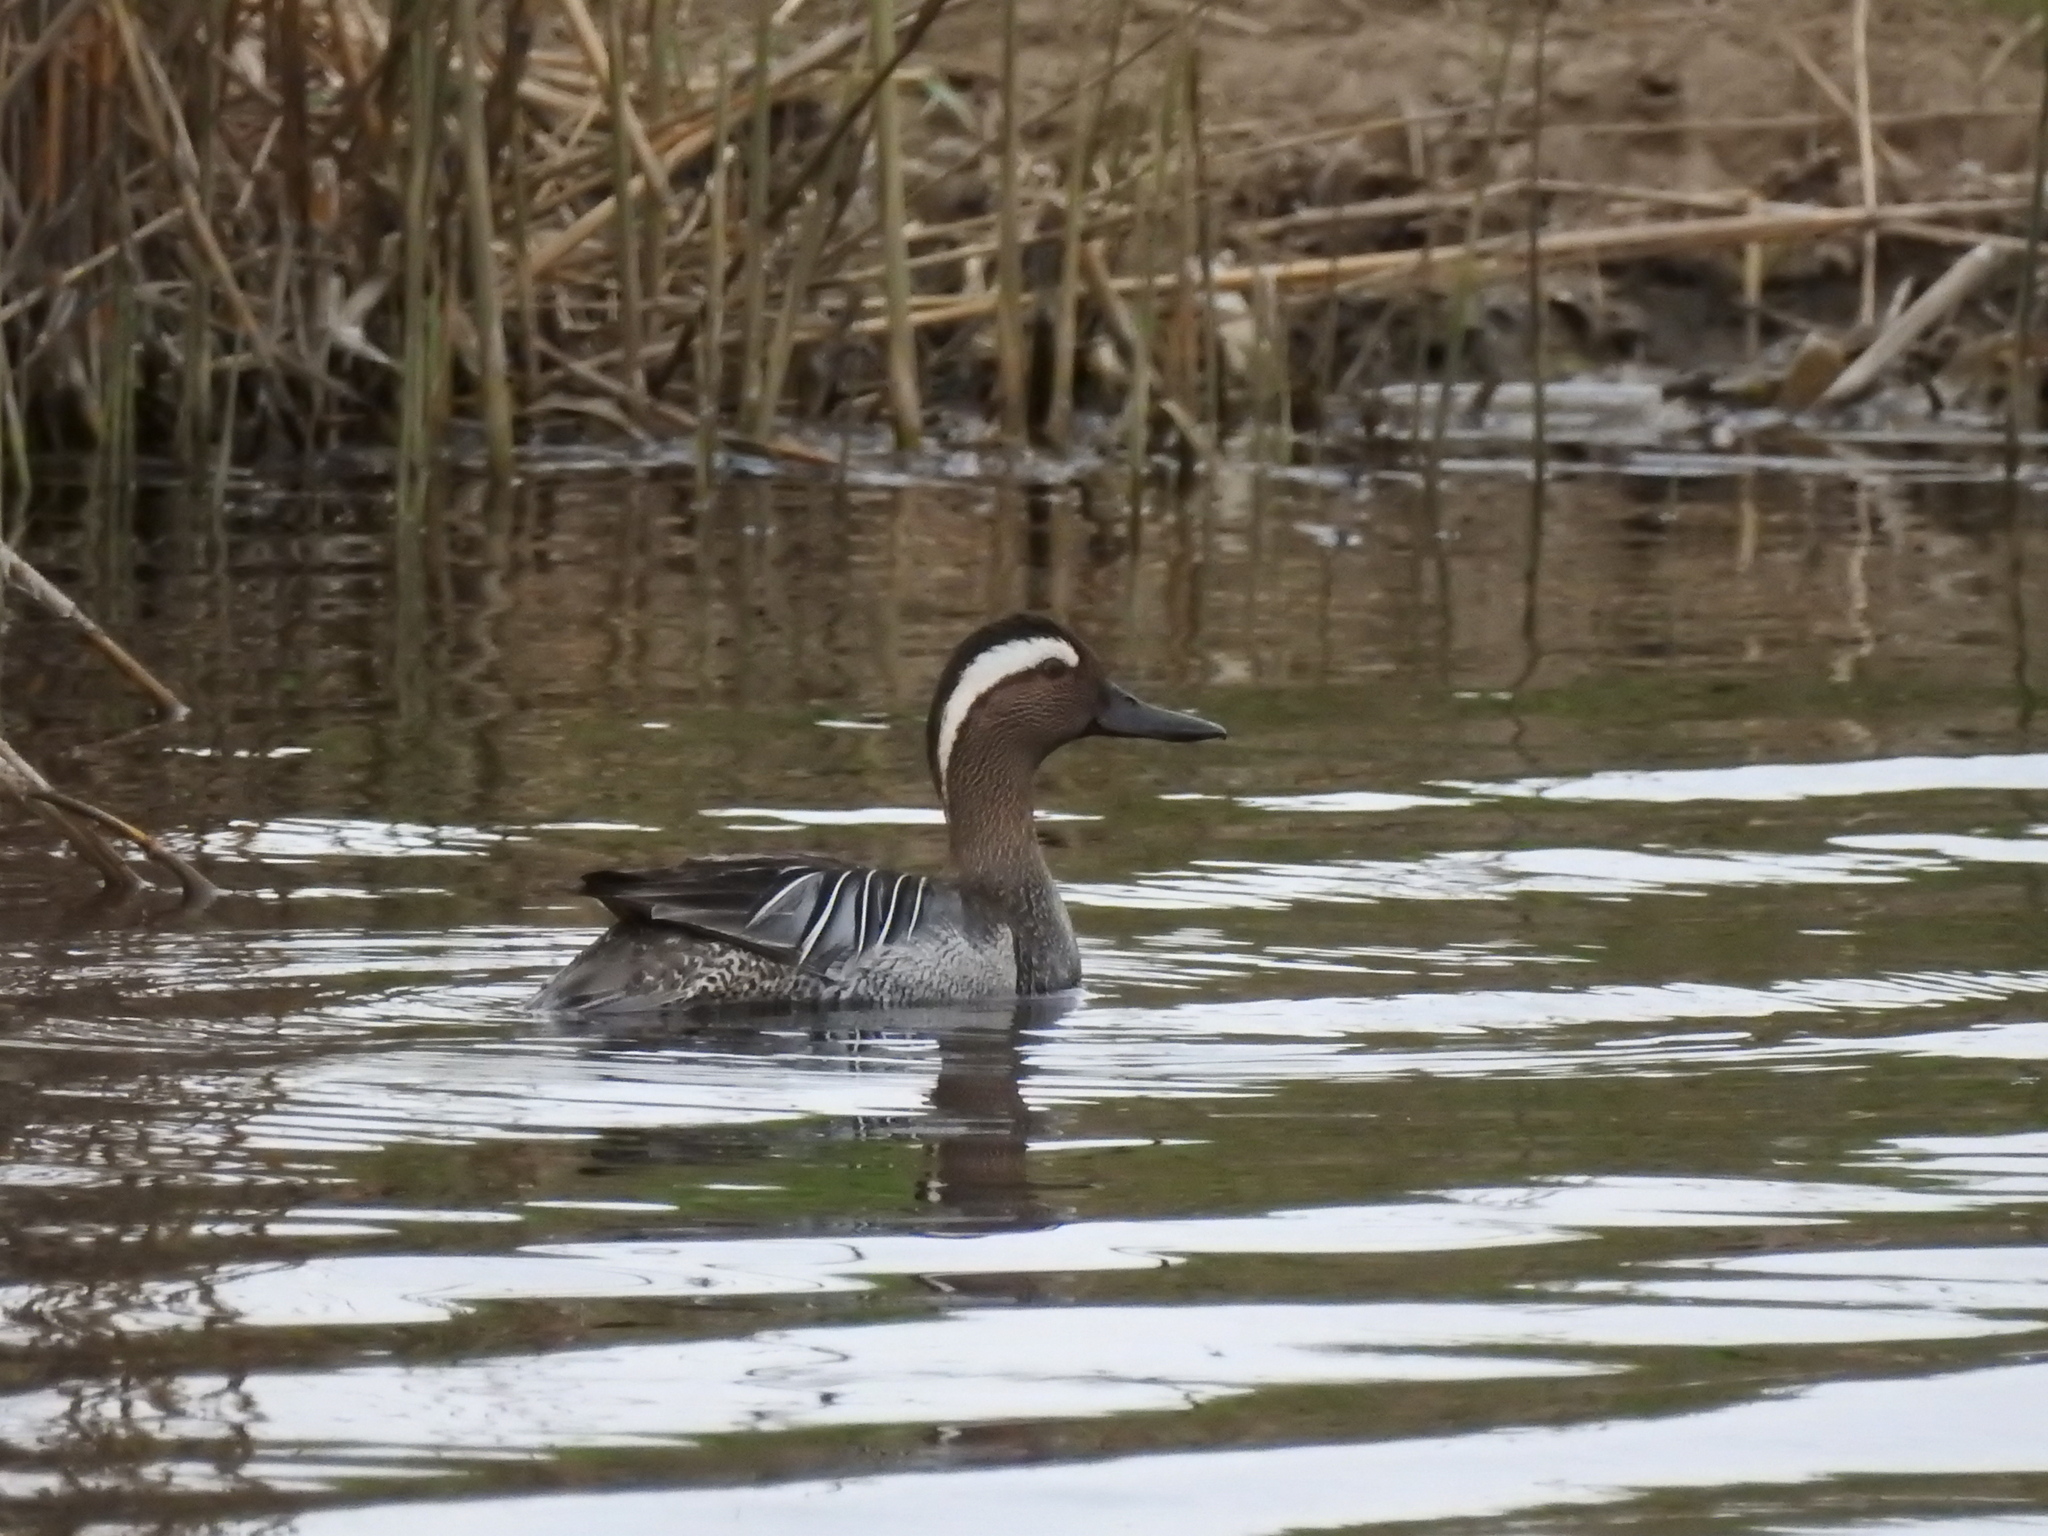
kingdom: Animalia
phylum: Chordata
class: Aves
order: Anseriformes
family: Anatidae
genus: Spatula
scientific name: Spatula querquedula
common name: Garganey
